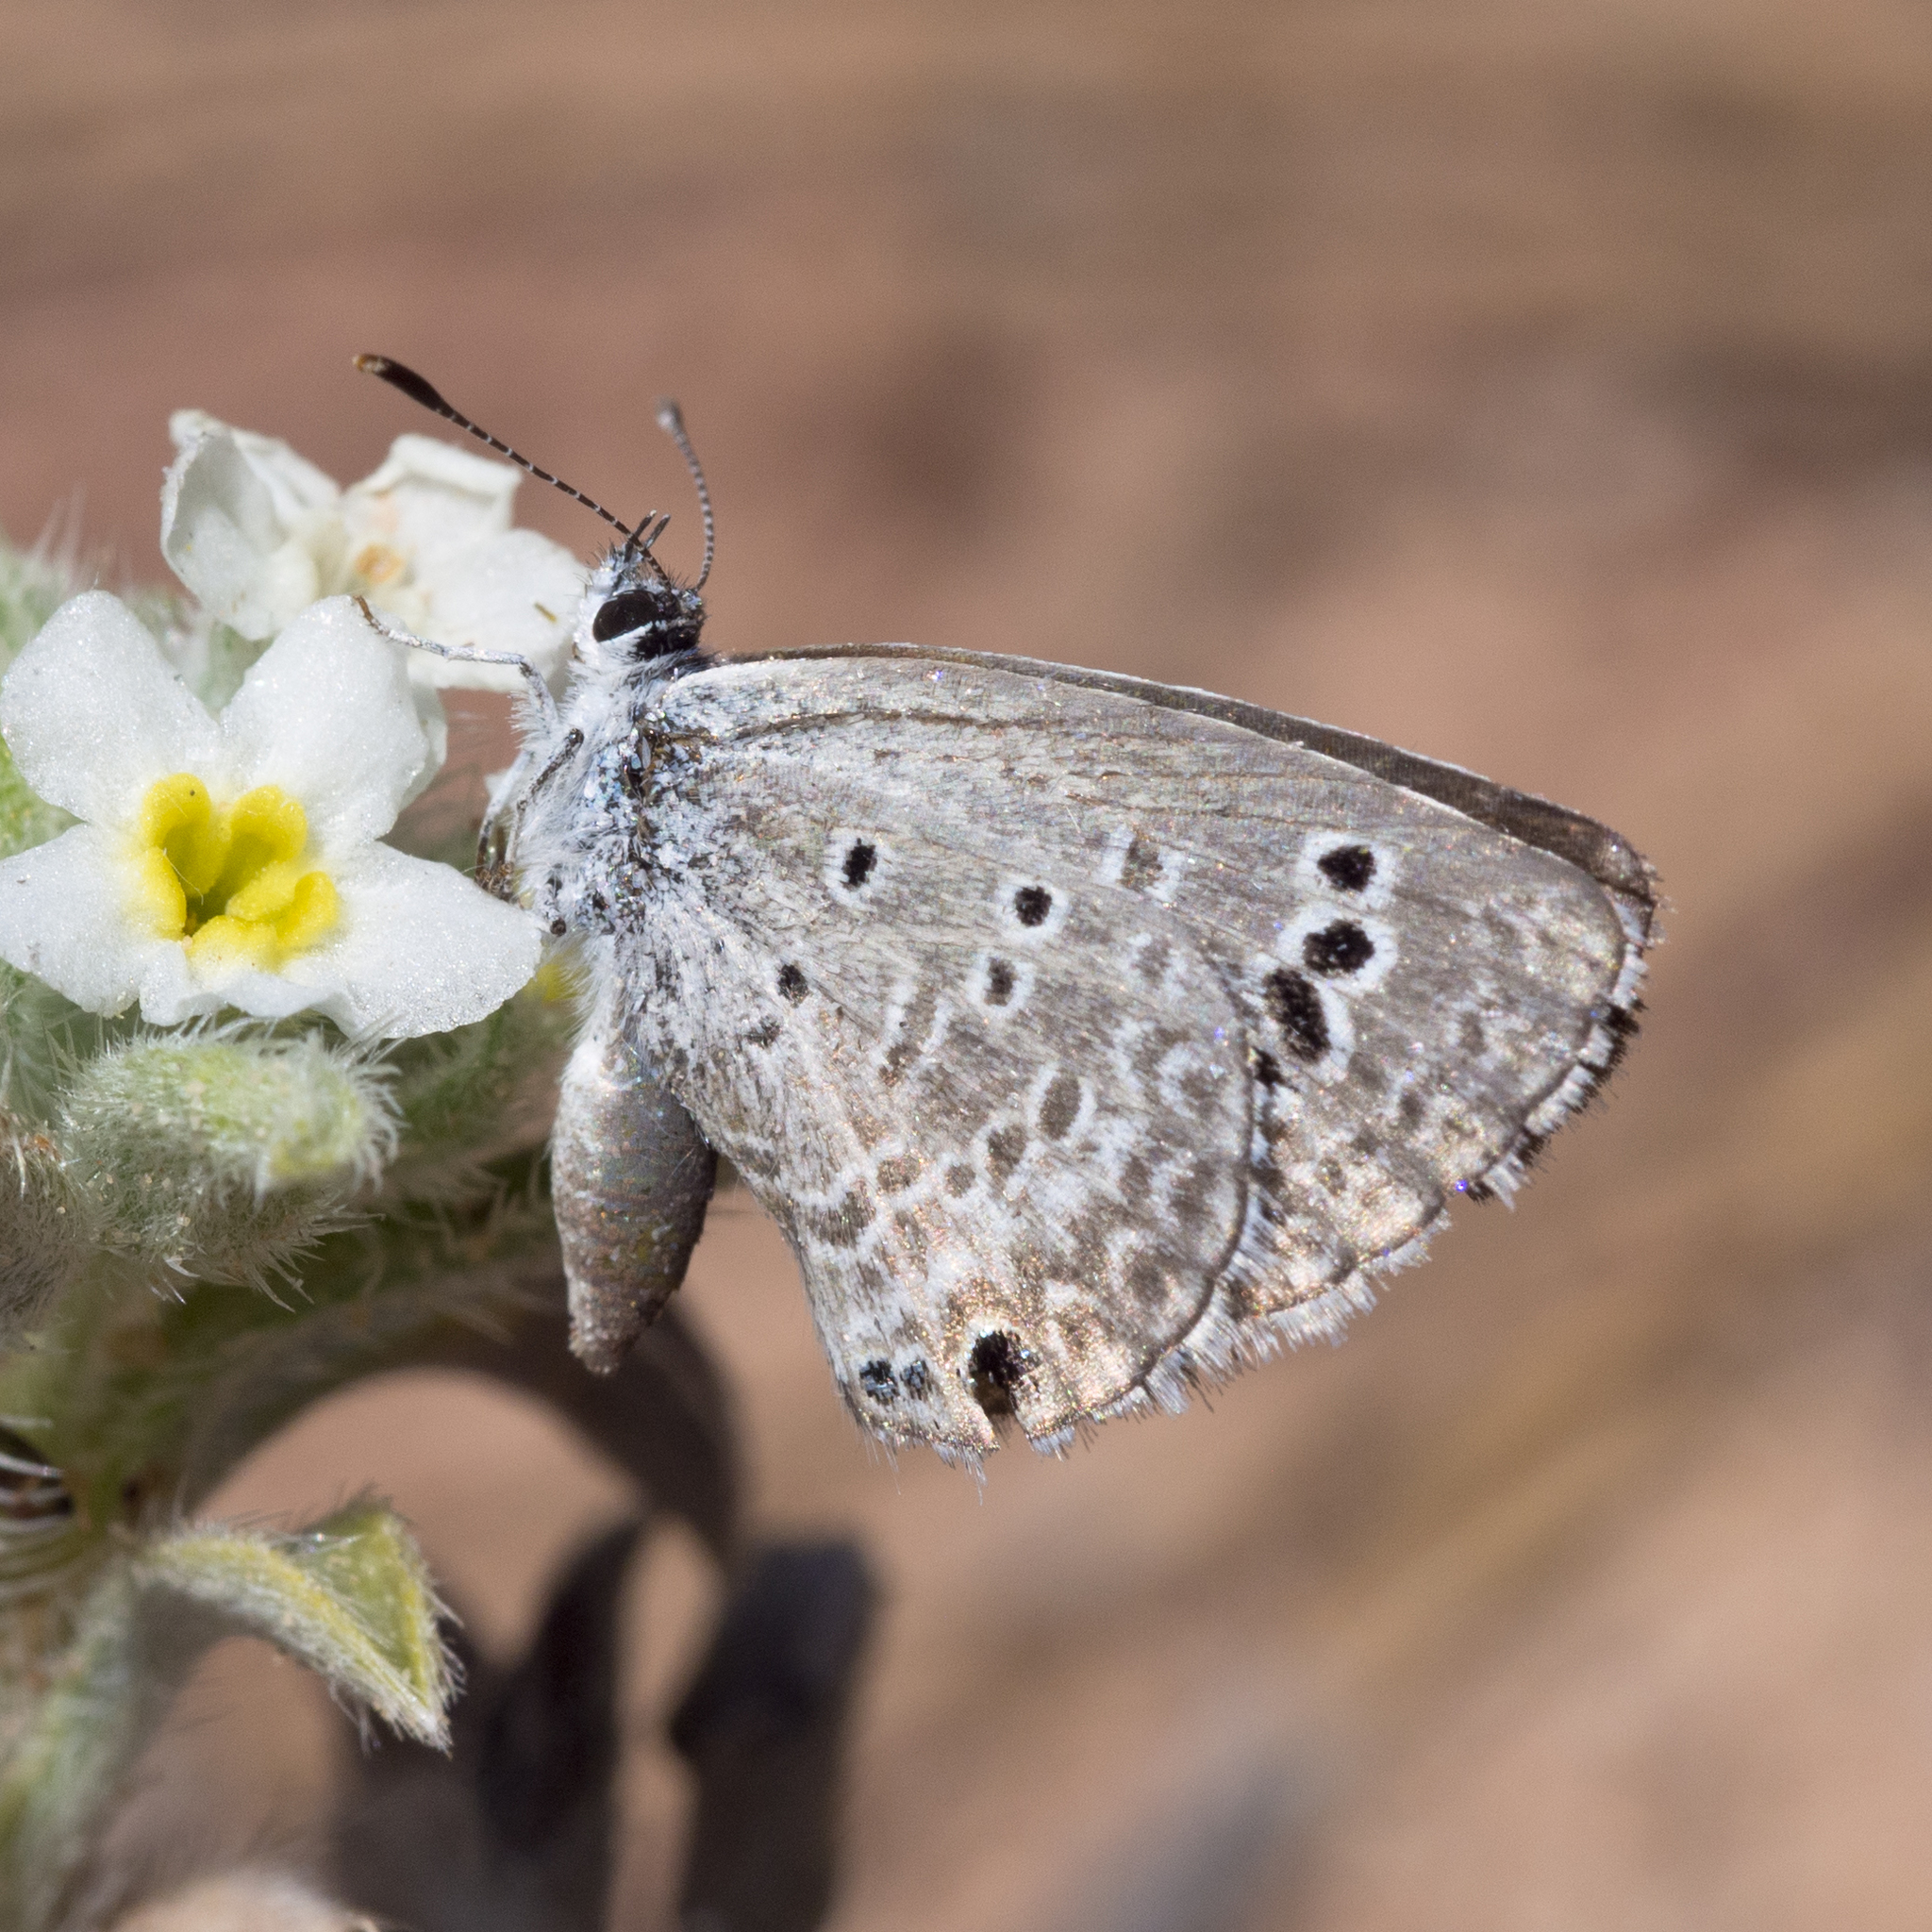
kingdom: Animalia
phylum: Arthropoda
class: Insecta
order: Lepidoptera
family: Lycaenidae
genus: Echinargus
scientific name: Echinargus isola
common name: Reakirt's blue
